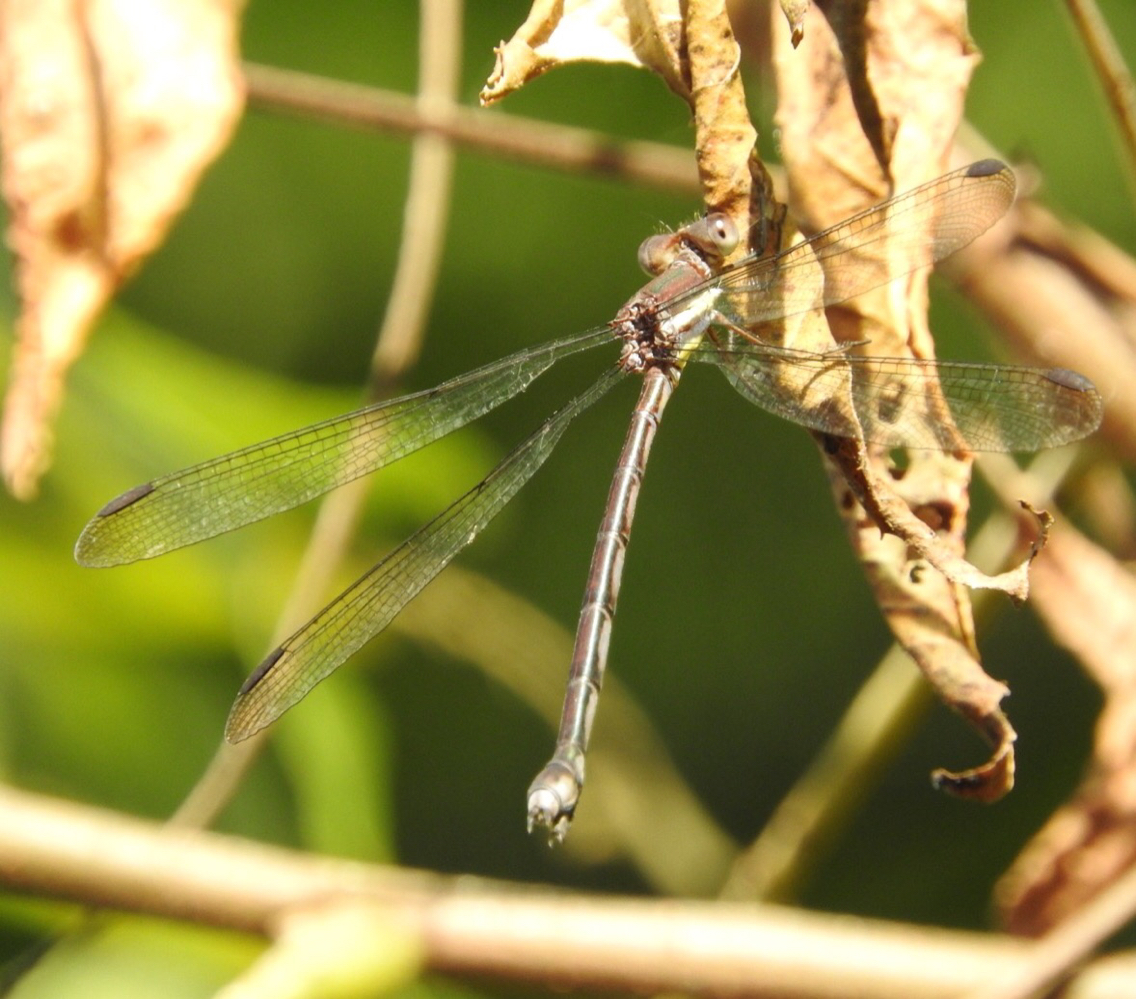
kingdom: Animalia
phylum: Arthropoda
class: Insecta
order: Odonata
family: Lestidae
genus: Archilestes
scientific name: Archilestes grandis
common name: Great spreadwing
